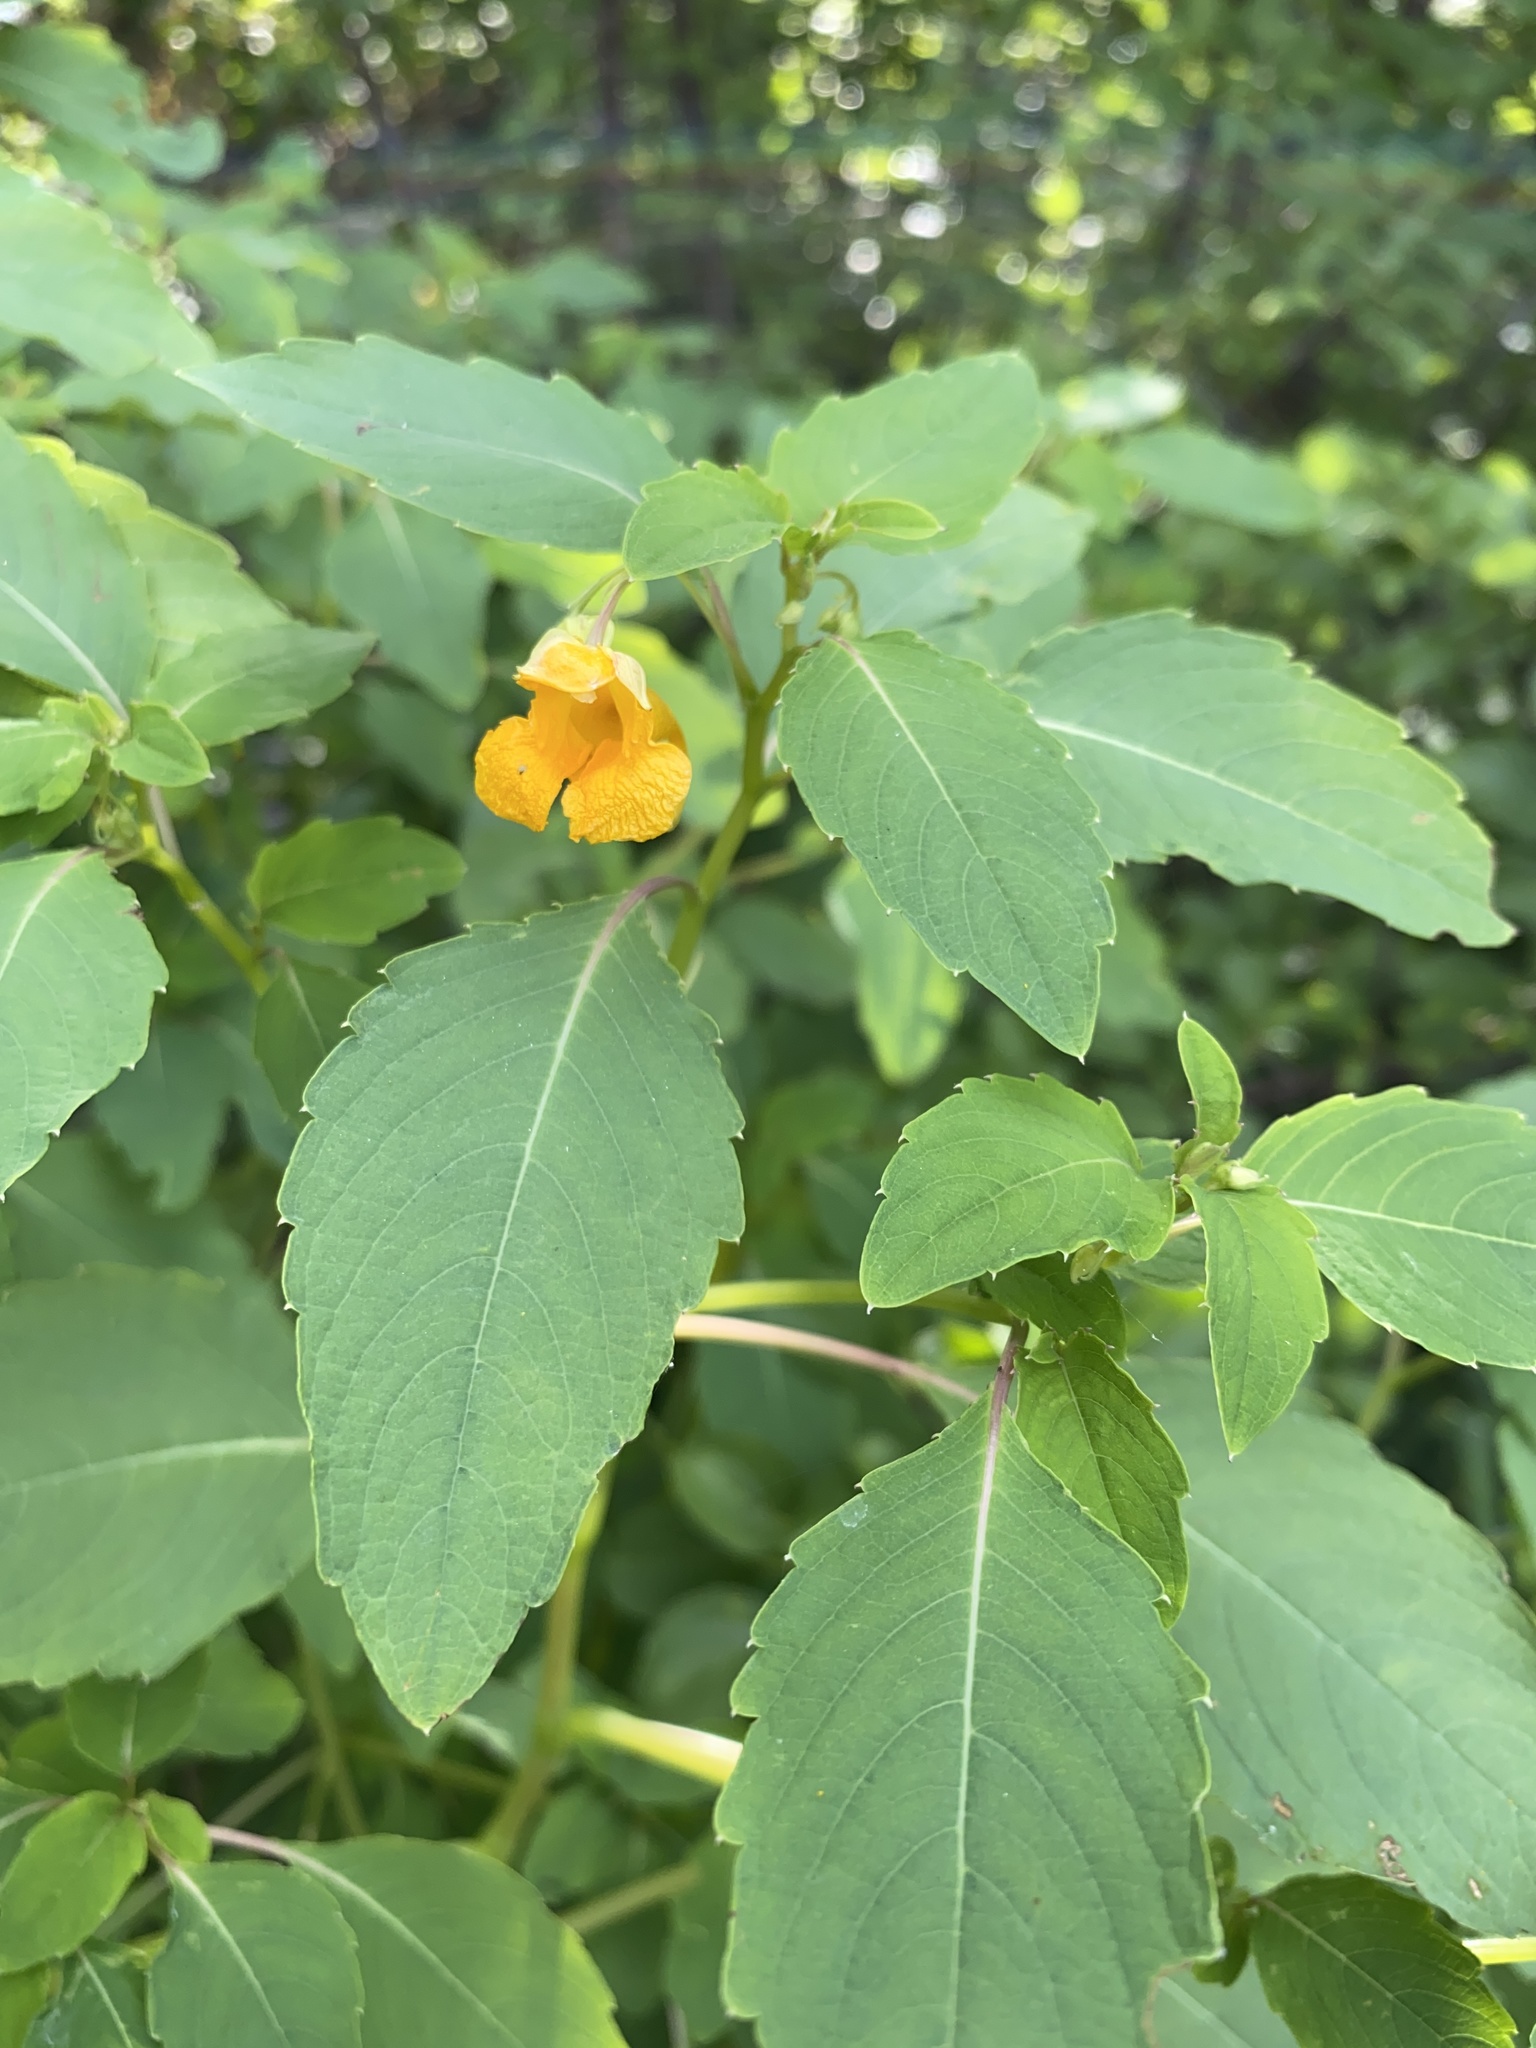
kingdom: Plantae
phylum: Tracheophyta
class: Magnoliopsida
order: Ericales
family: Balsaminaceae
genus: Impatiens
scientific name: Impatiens capensis
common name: Orange balsam
